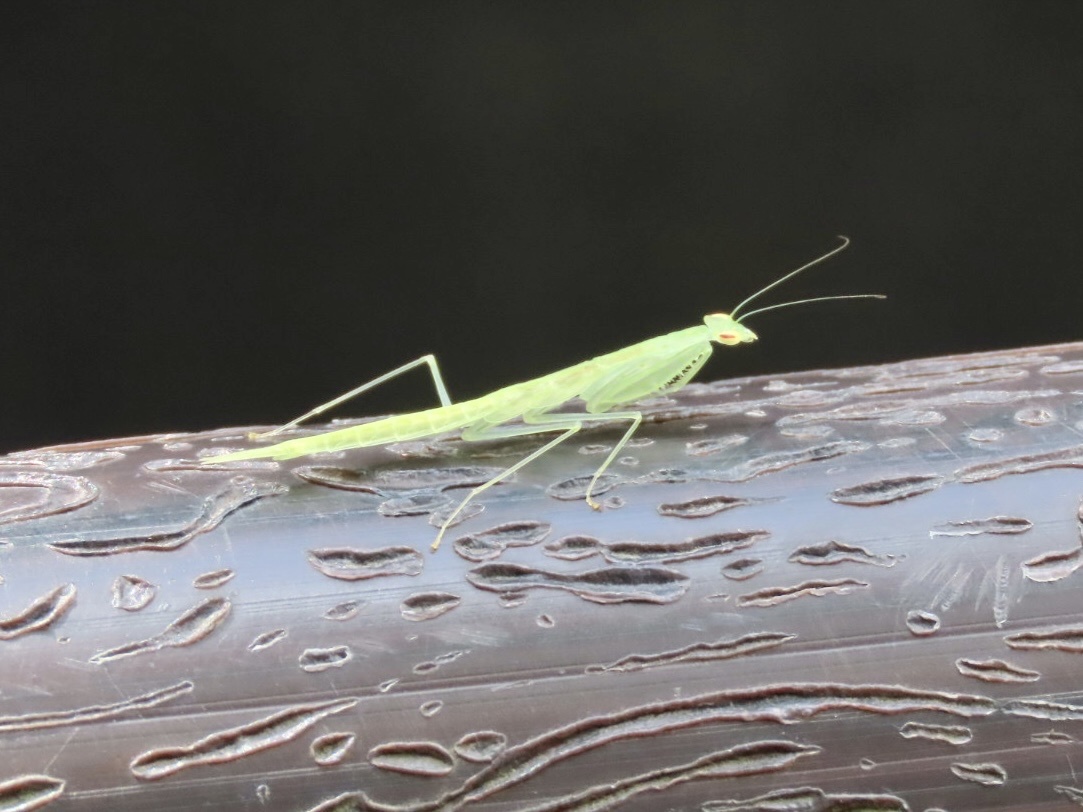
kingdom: Animalia
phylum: Arthropoda
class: Insecta
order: Mantodea
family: Nanomantidae
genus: Sinomantis
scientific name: Sinomantis denticulata
